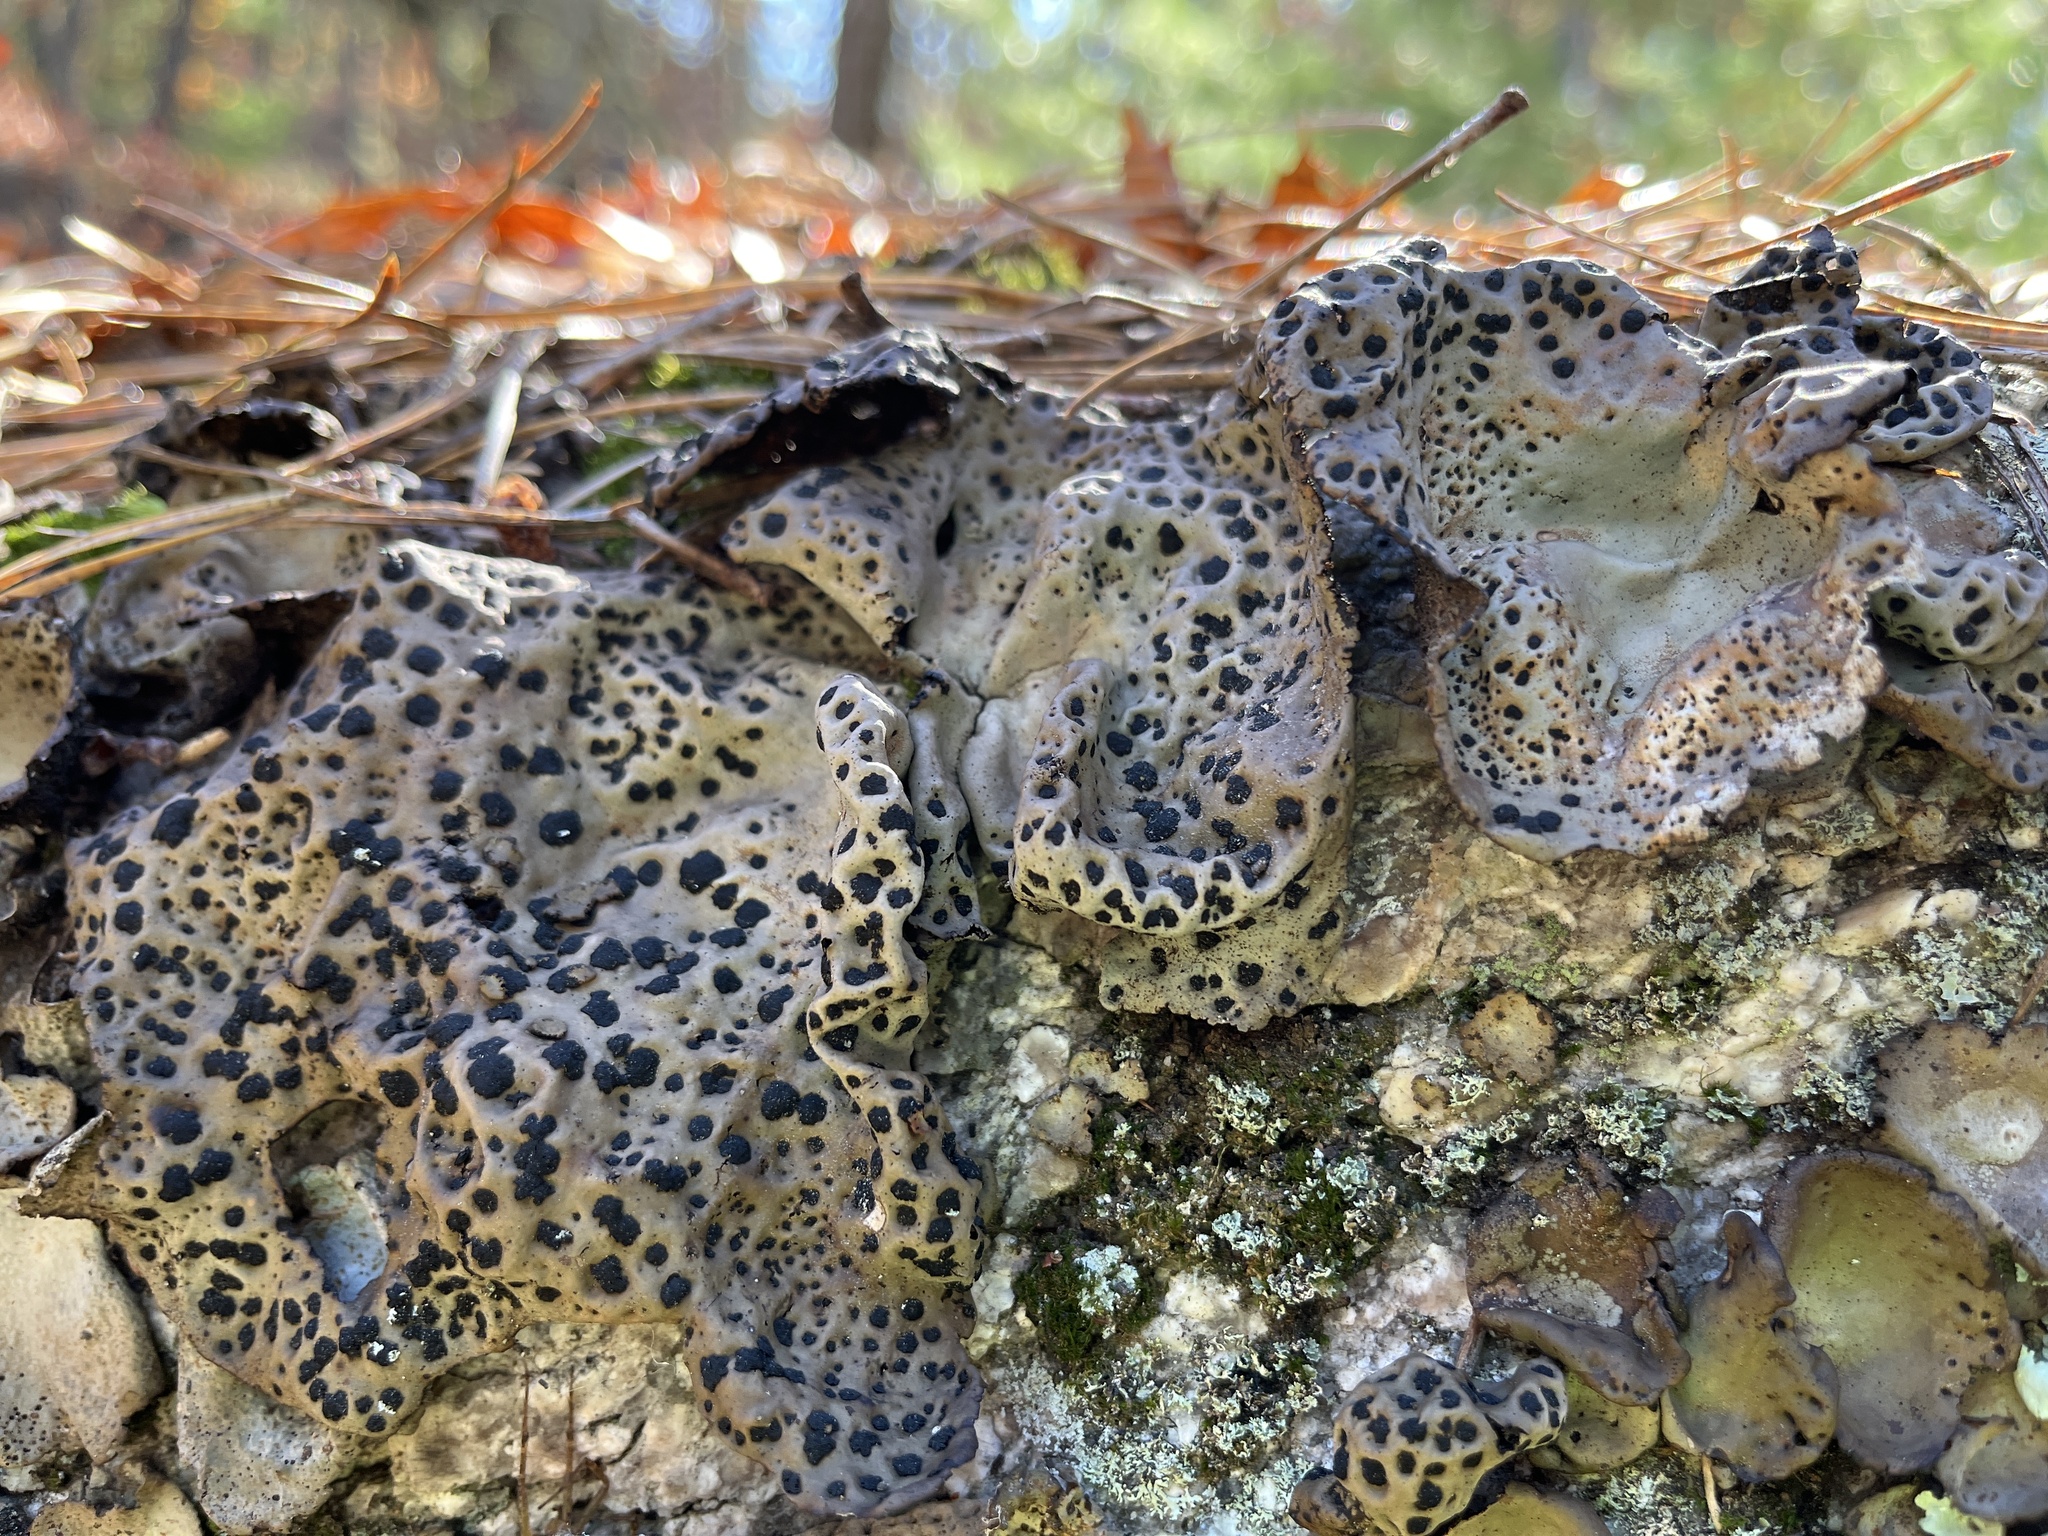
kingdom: Fungi
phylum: Ascomycota
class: Lecanoromycetes
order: Umbilicariales
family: Umbilicariaceae
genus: Umbilicaria
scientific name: Umbilicaria muhlenbergii
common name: Lesser rocktripe
